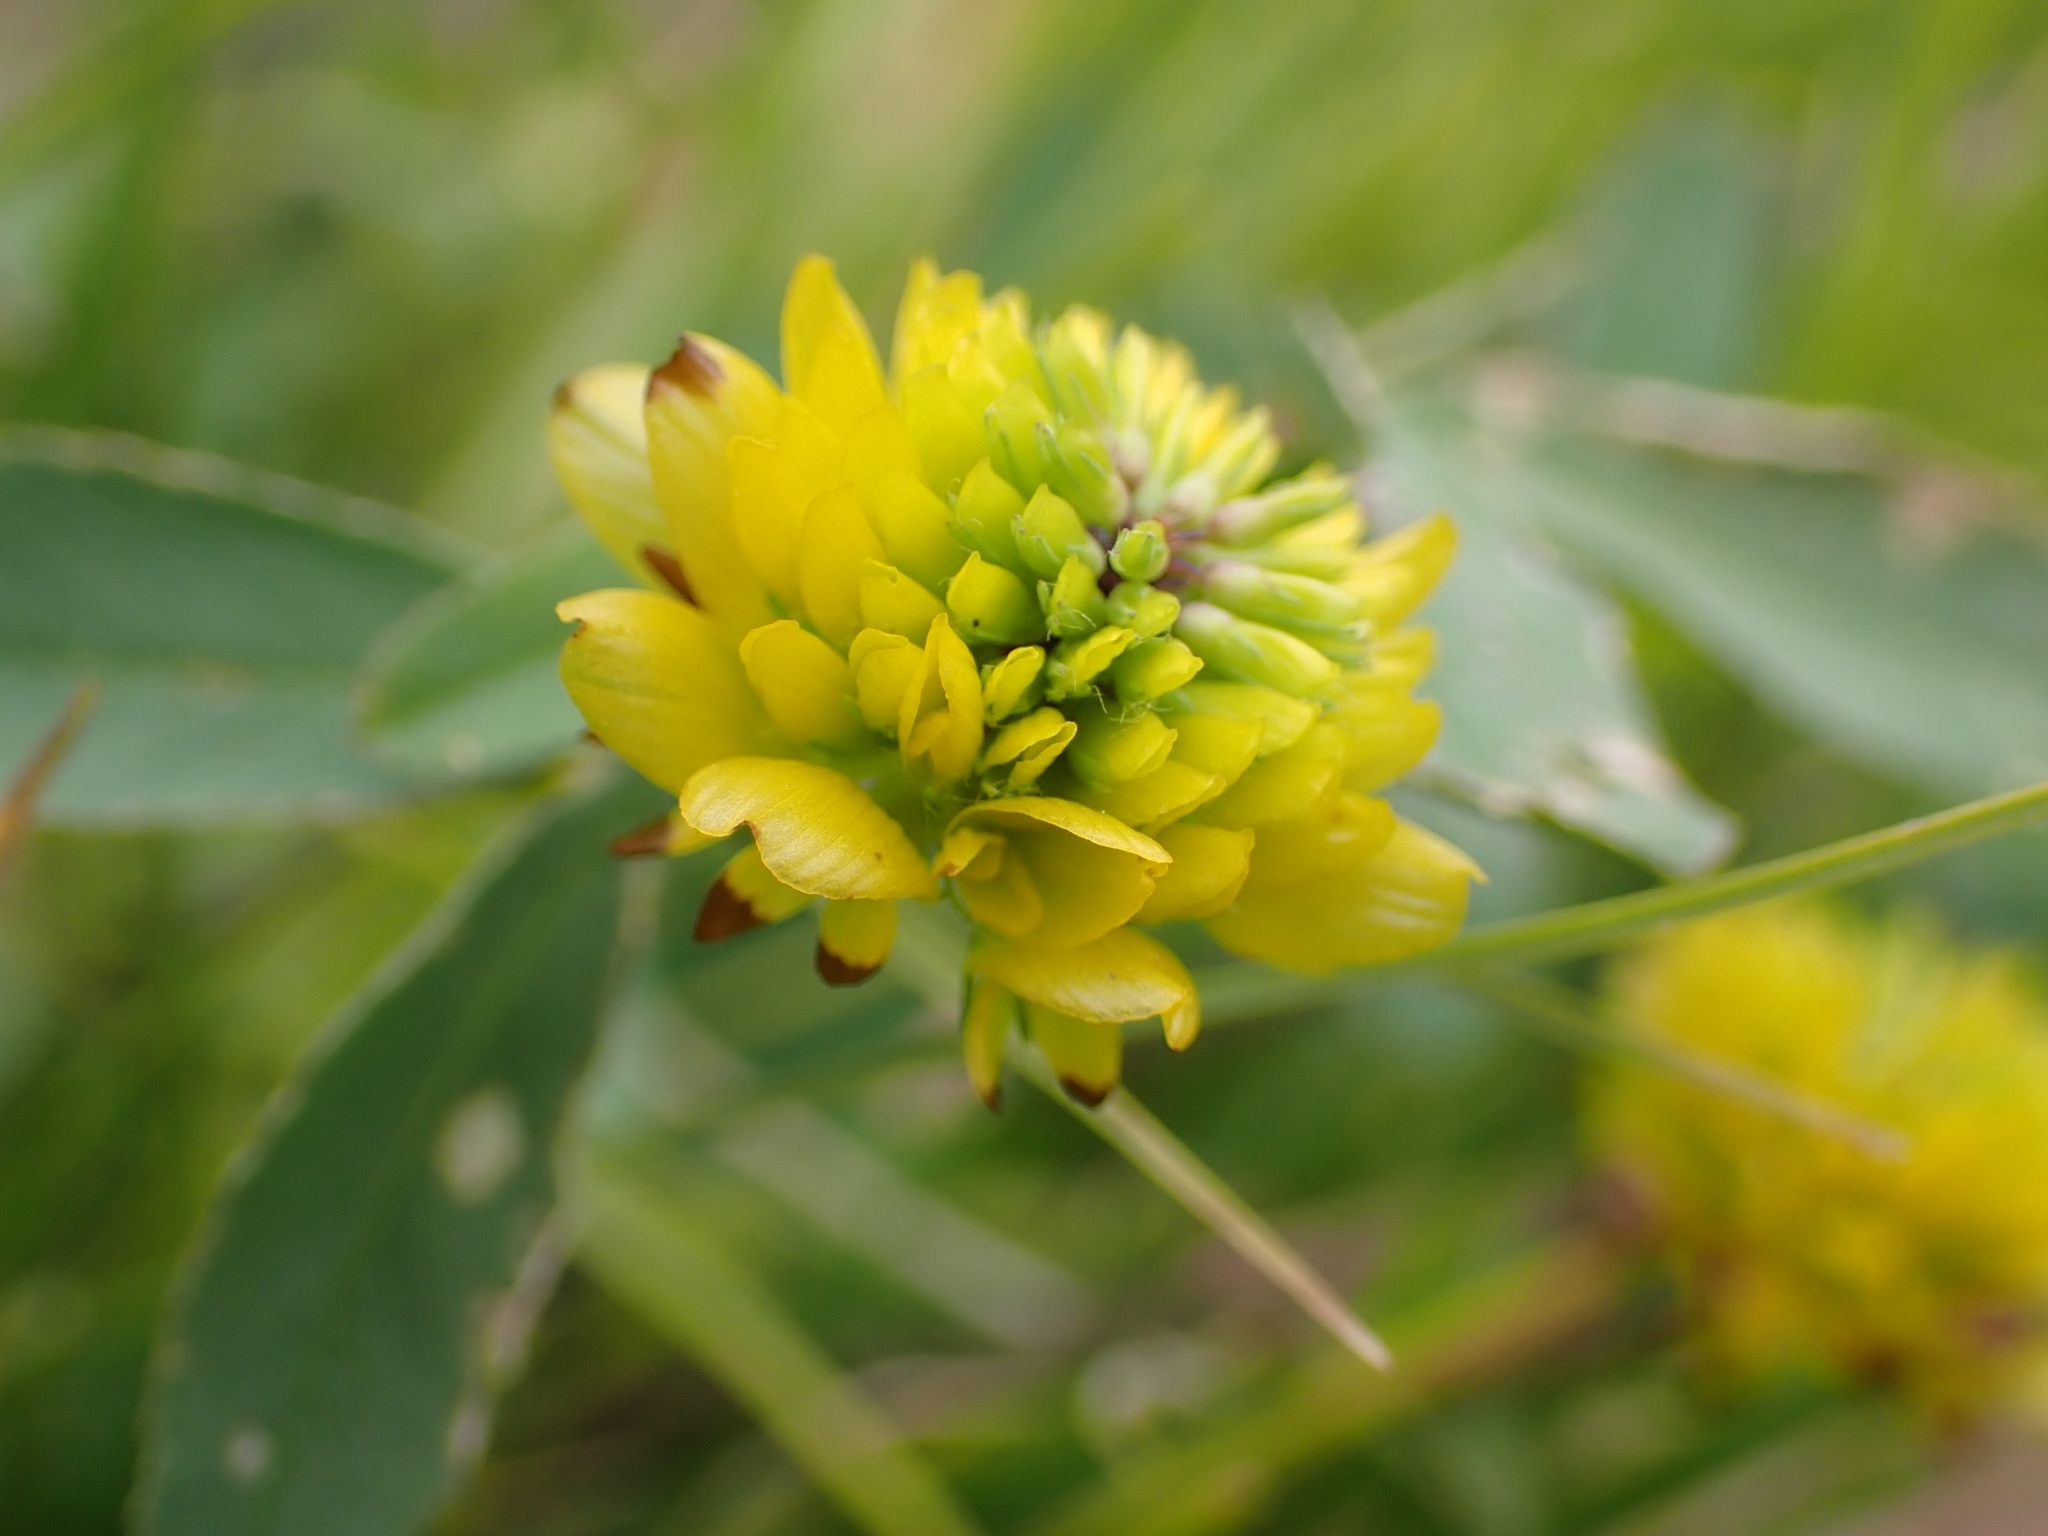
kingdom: Plantae
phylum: Tracheophyta
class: Magnoliopsida
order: Fabales
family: Fabaceae
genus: Trifolium
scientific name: Trifolium badium
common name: Brown clover
